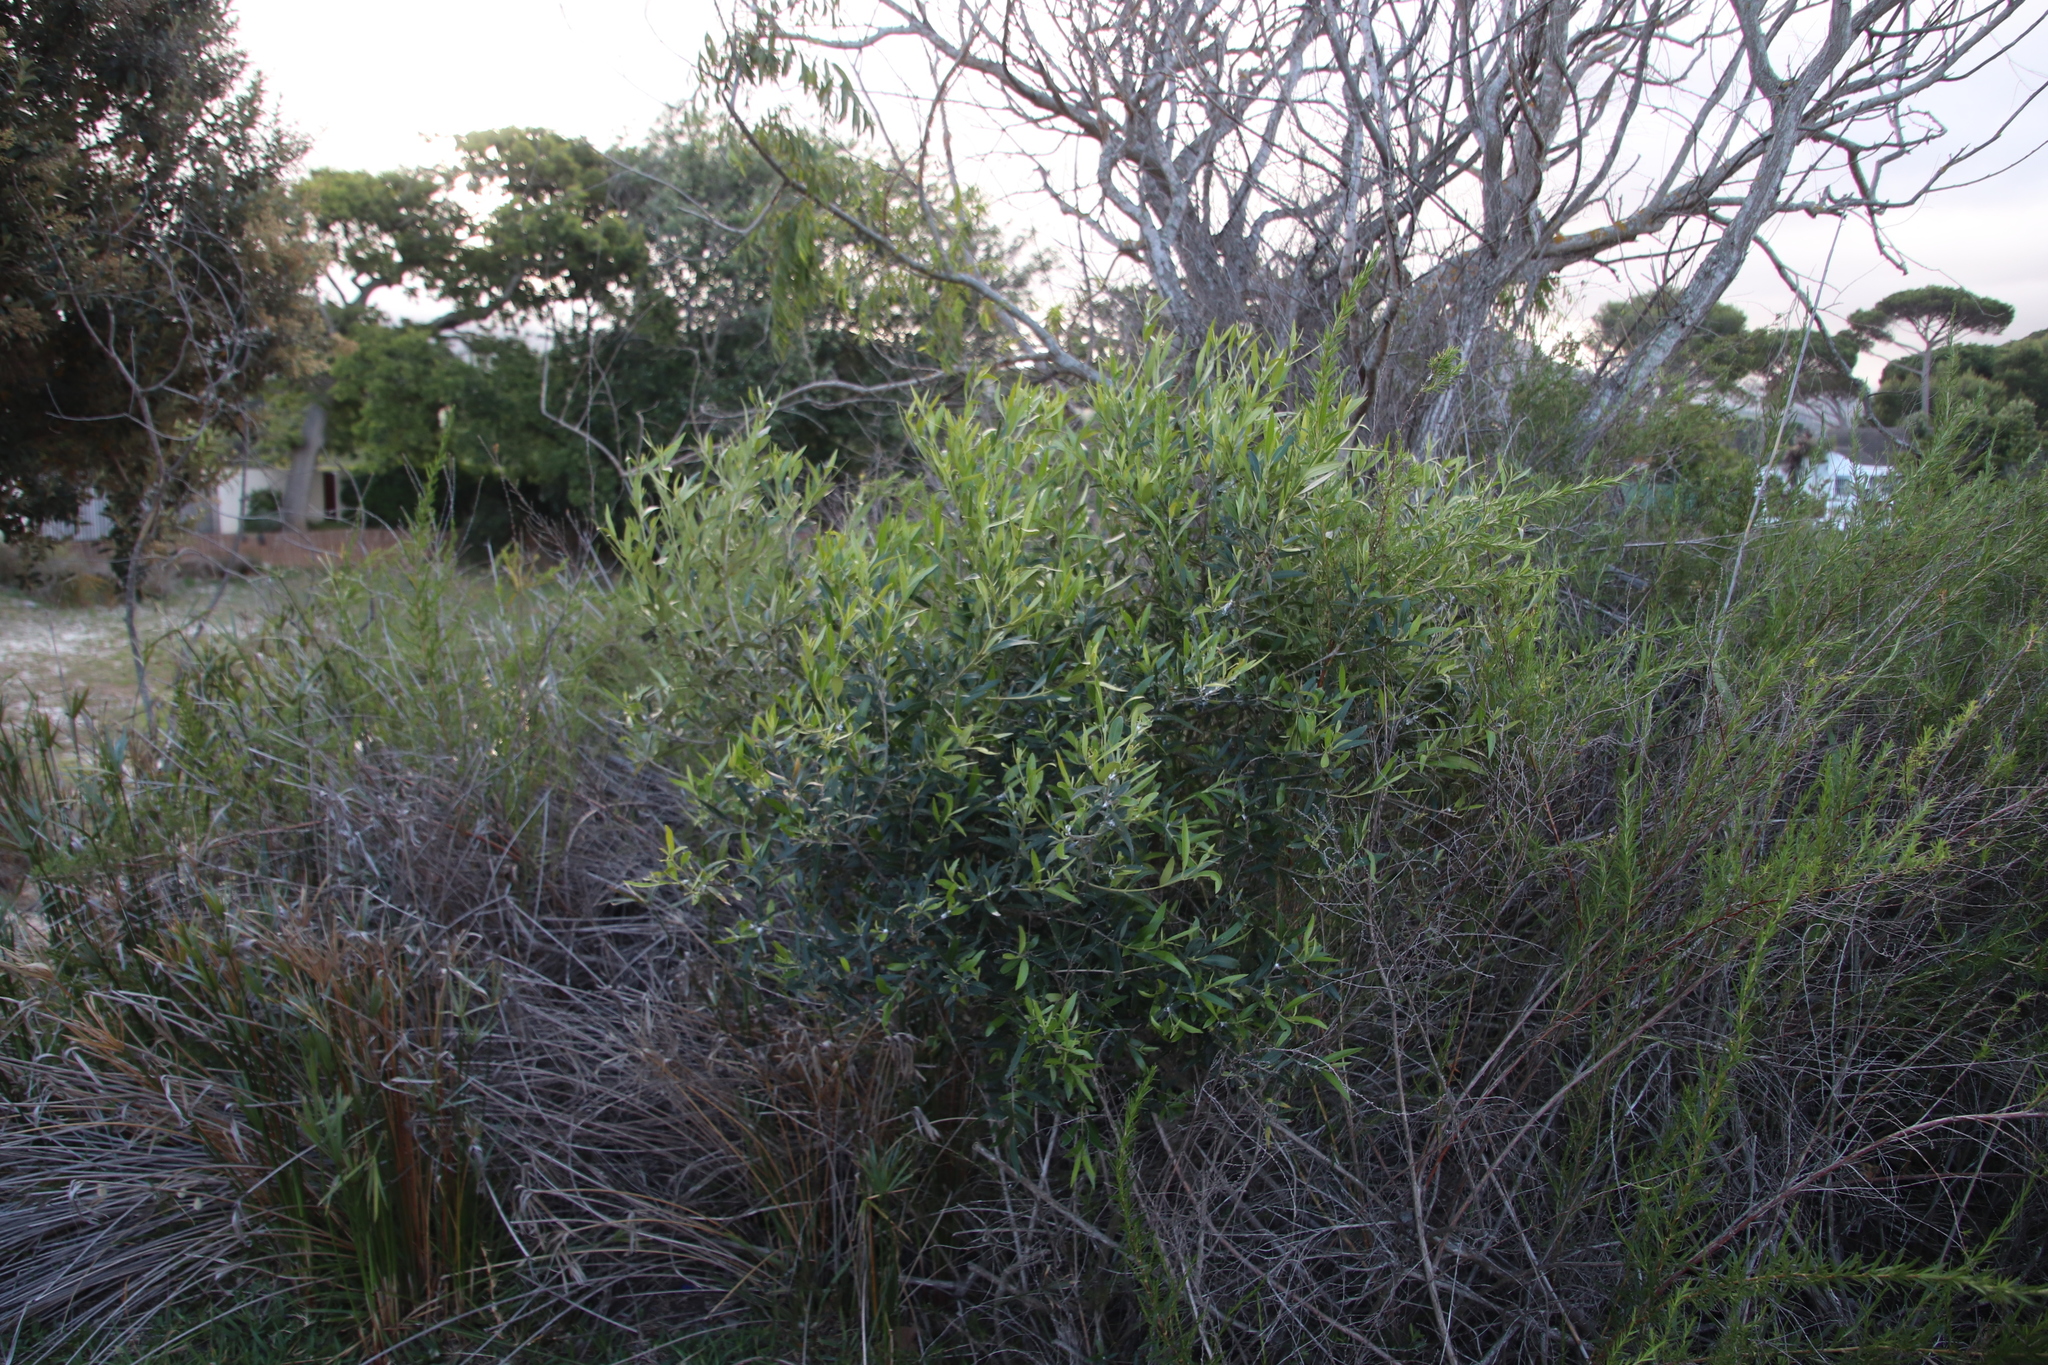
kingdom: Plantae
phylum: Tracheophyta
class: Magnoliopsida
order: Lamiales
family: Oleaceae
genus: Olea
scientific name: Olea europaea
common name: Olive
